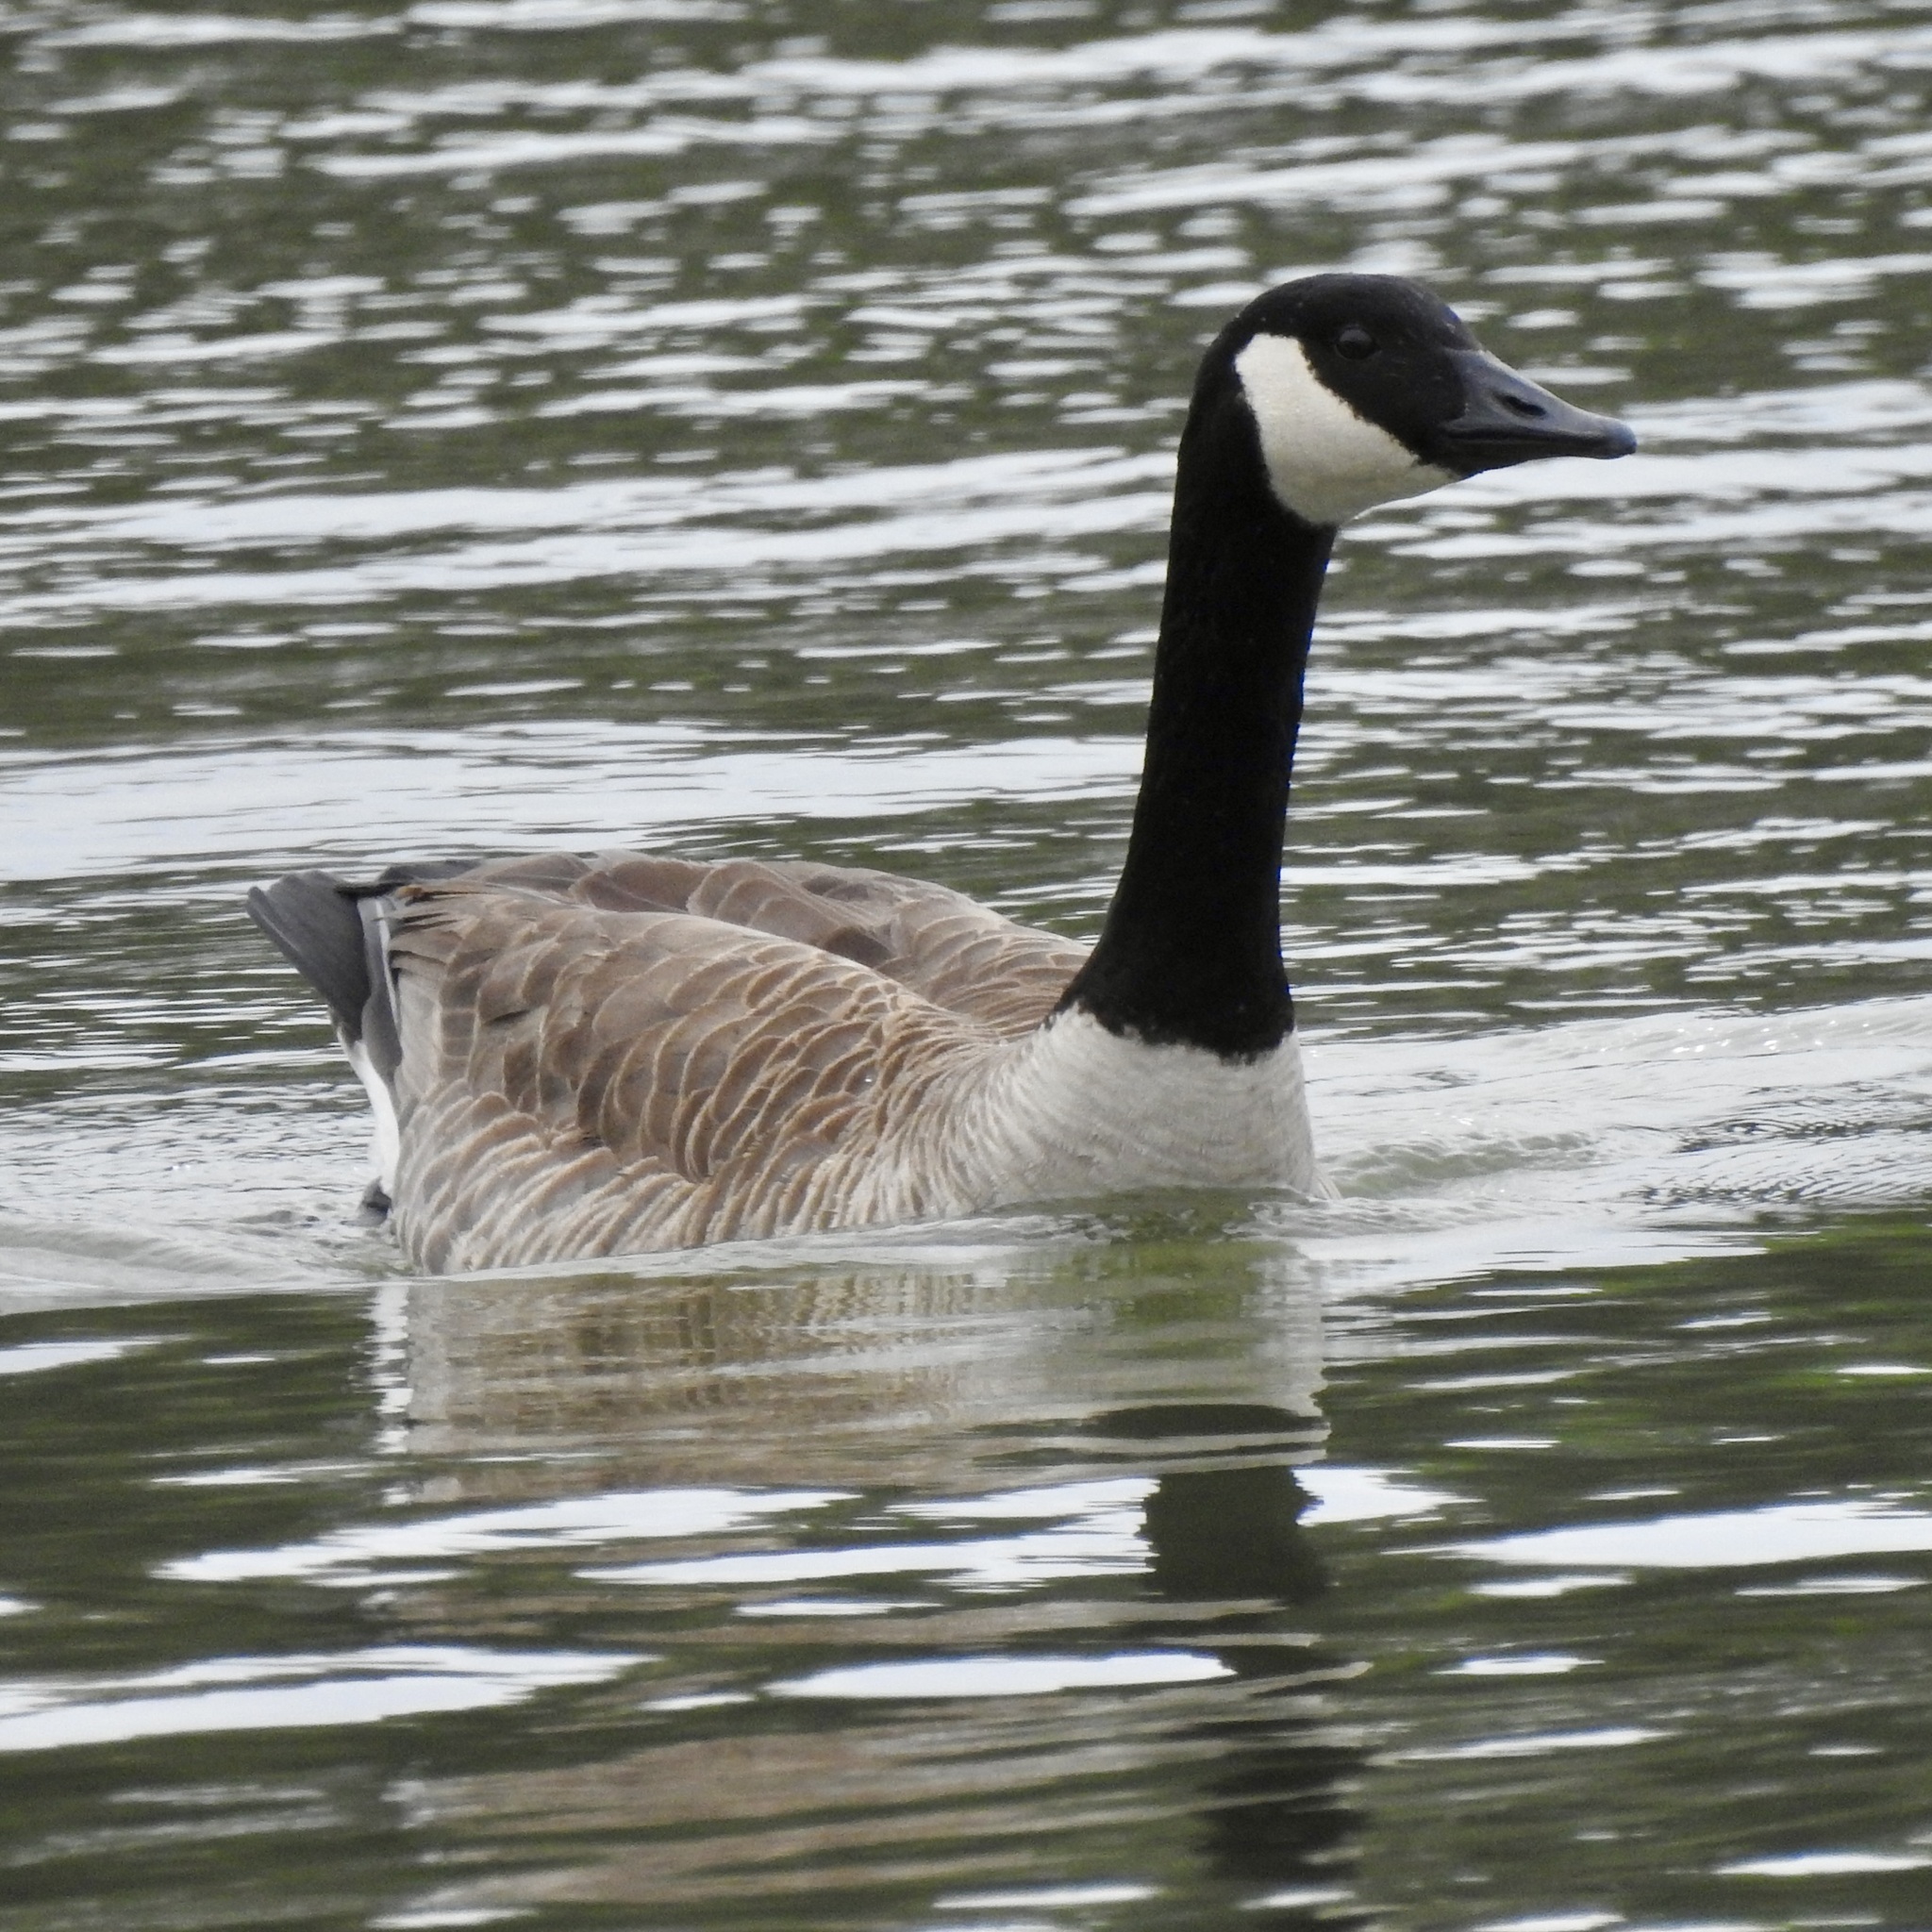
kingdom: Animalia
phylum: Chordata
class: Aves
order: Anseriformes
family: Anatidae
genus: Branta
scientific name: Branta canadensis
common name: Canada goose
